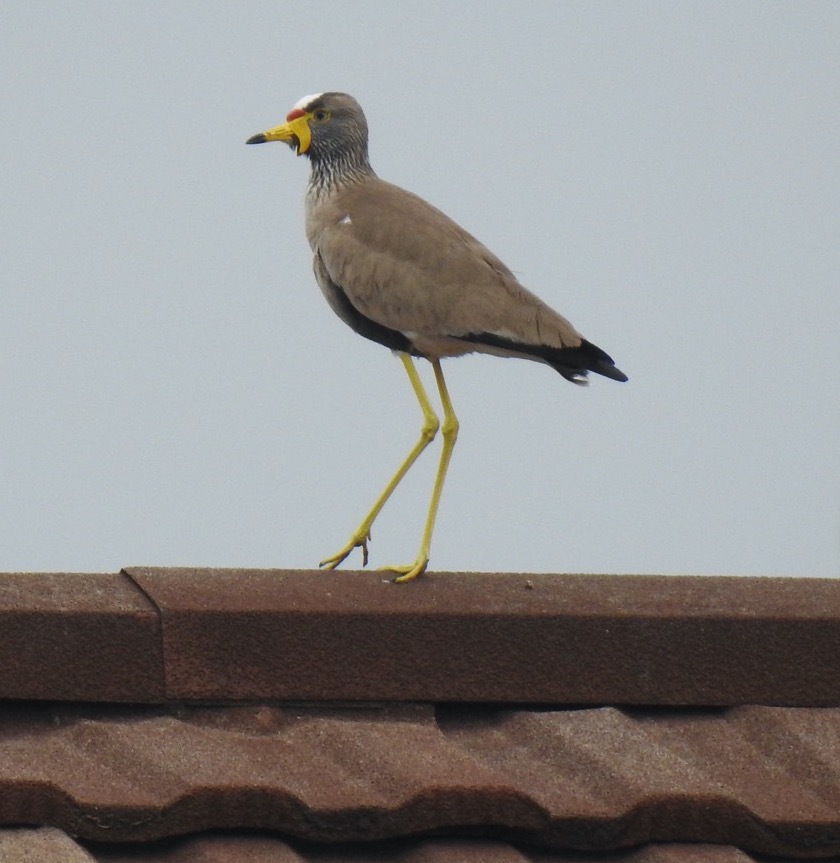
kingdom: Animalia
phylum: Chordata
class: Aves
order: Charadriiformes
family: Charadriidae
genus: Vanellus
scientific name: Vanellus senegallus
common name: African wattled lapwing
